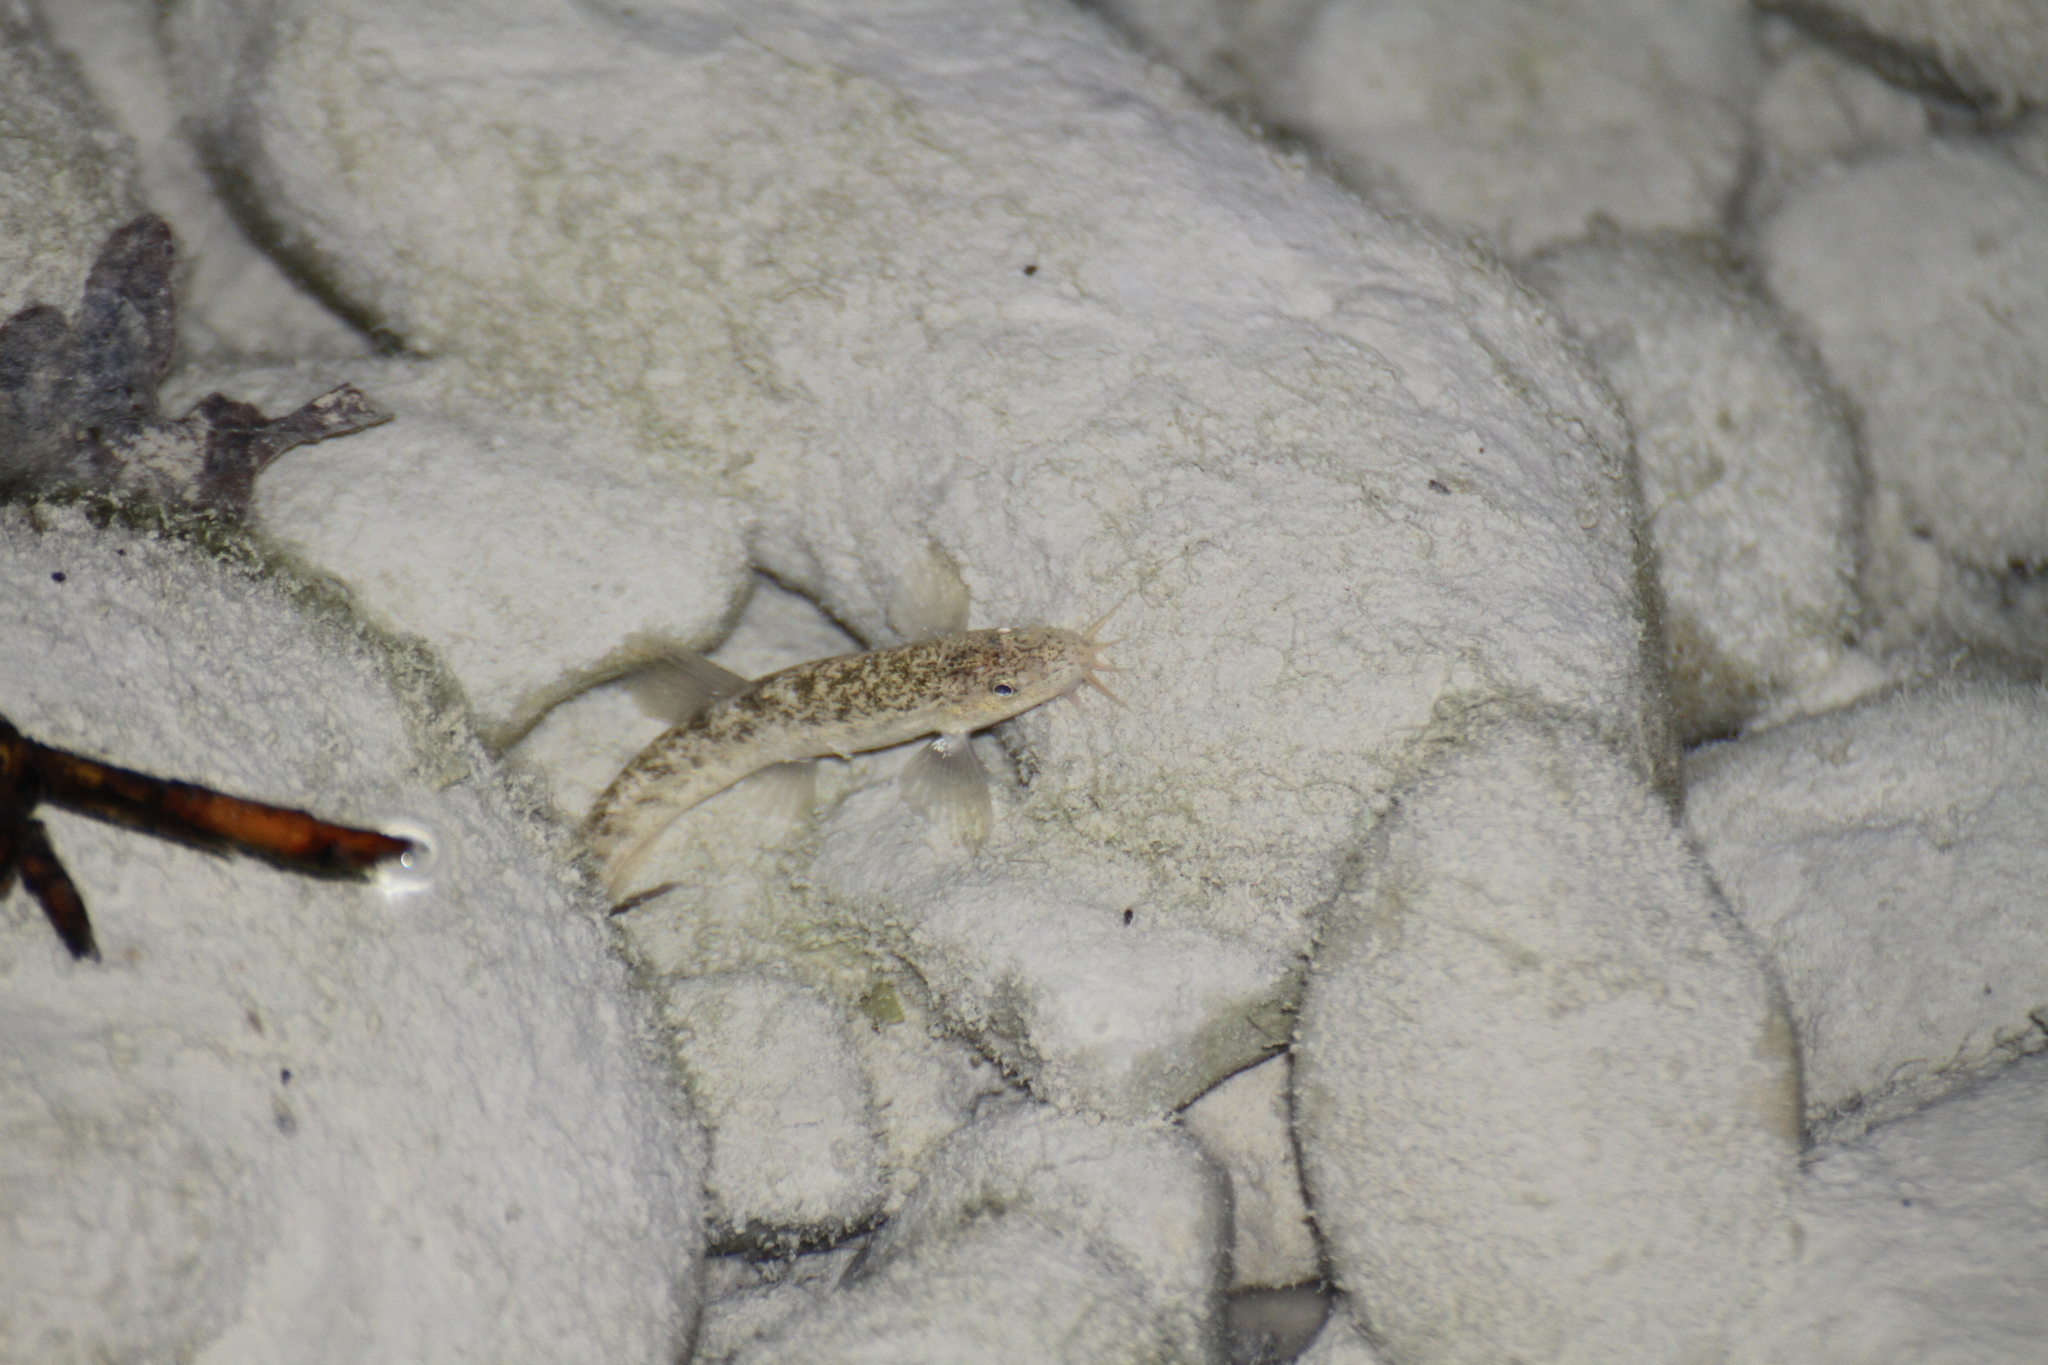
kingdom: Animalia
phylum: Chordata
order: Cypriniformes
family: Nemacheilidae
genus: Barbatula
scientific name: Barbatula barbatula
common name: Stone loach
